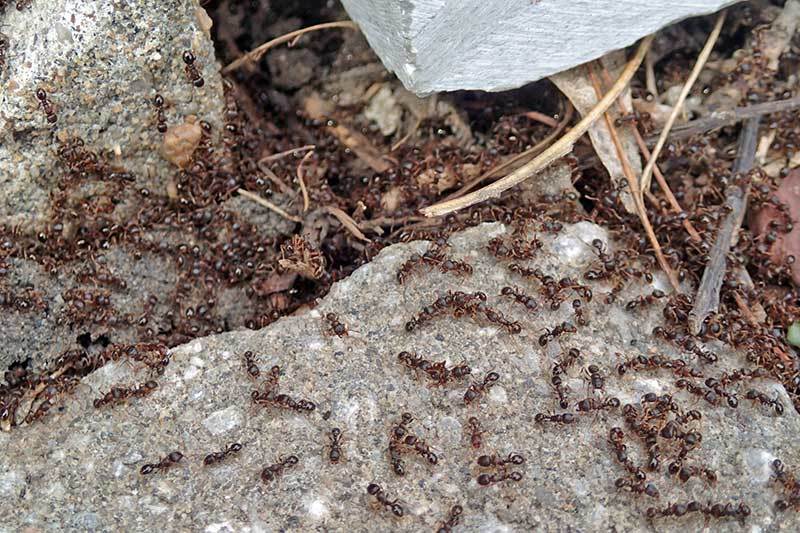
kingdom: Animalia
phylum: Arthropoda
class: Insecta
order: Hymenoptera
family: Formicidae
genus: Tetramorium
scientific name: Tetramorium immigrans
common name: Pavement ant
